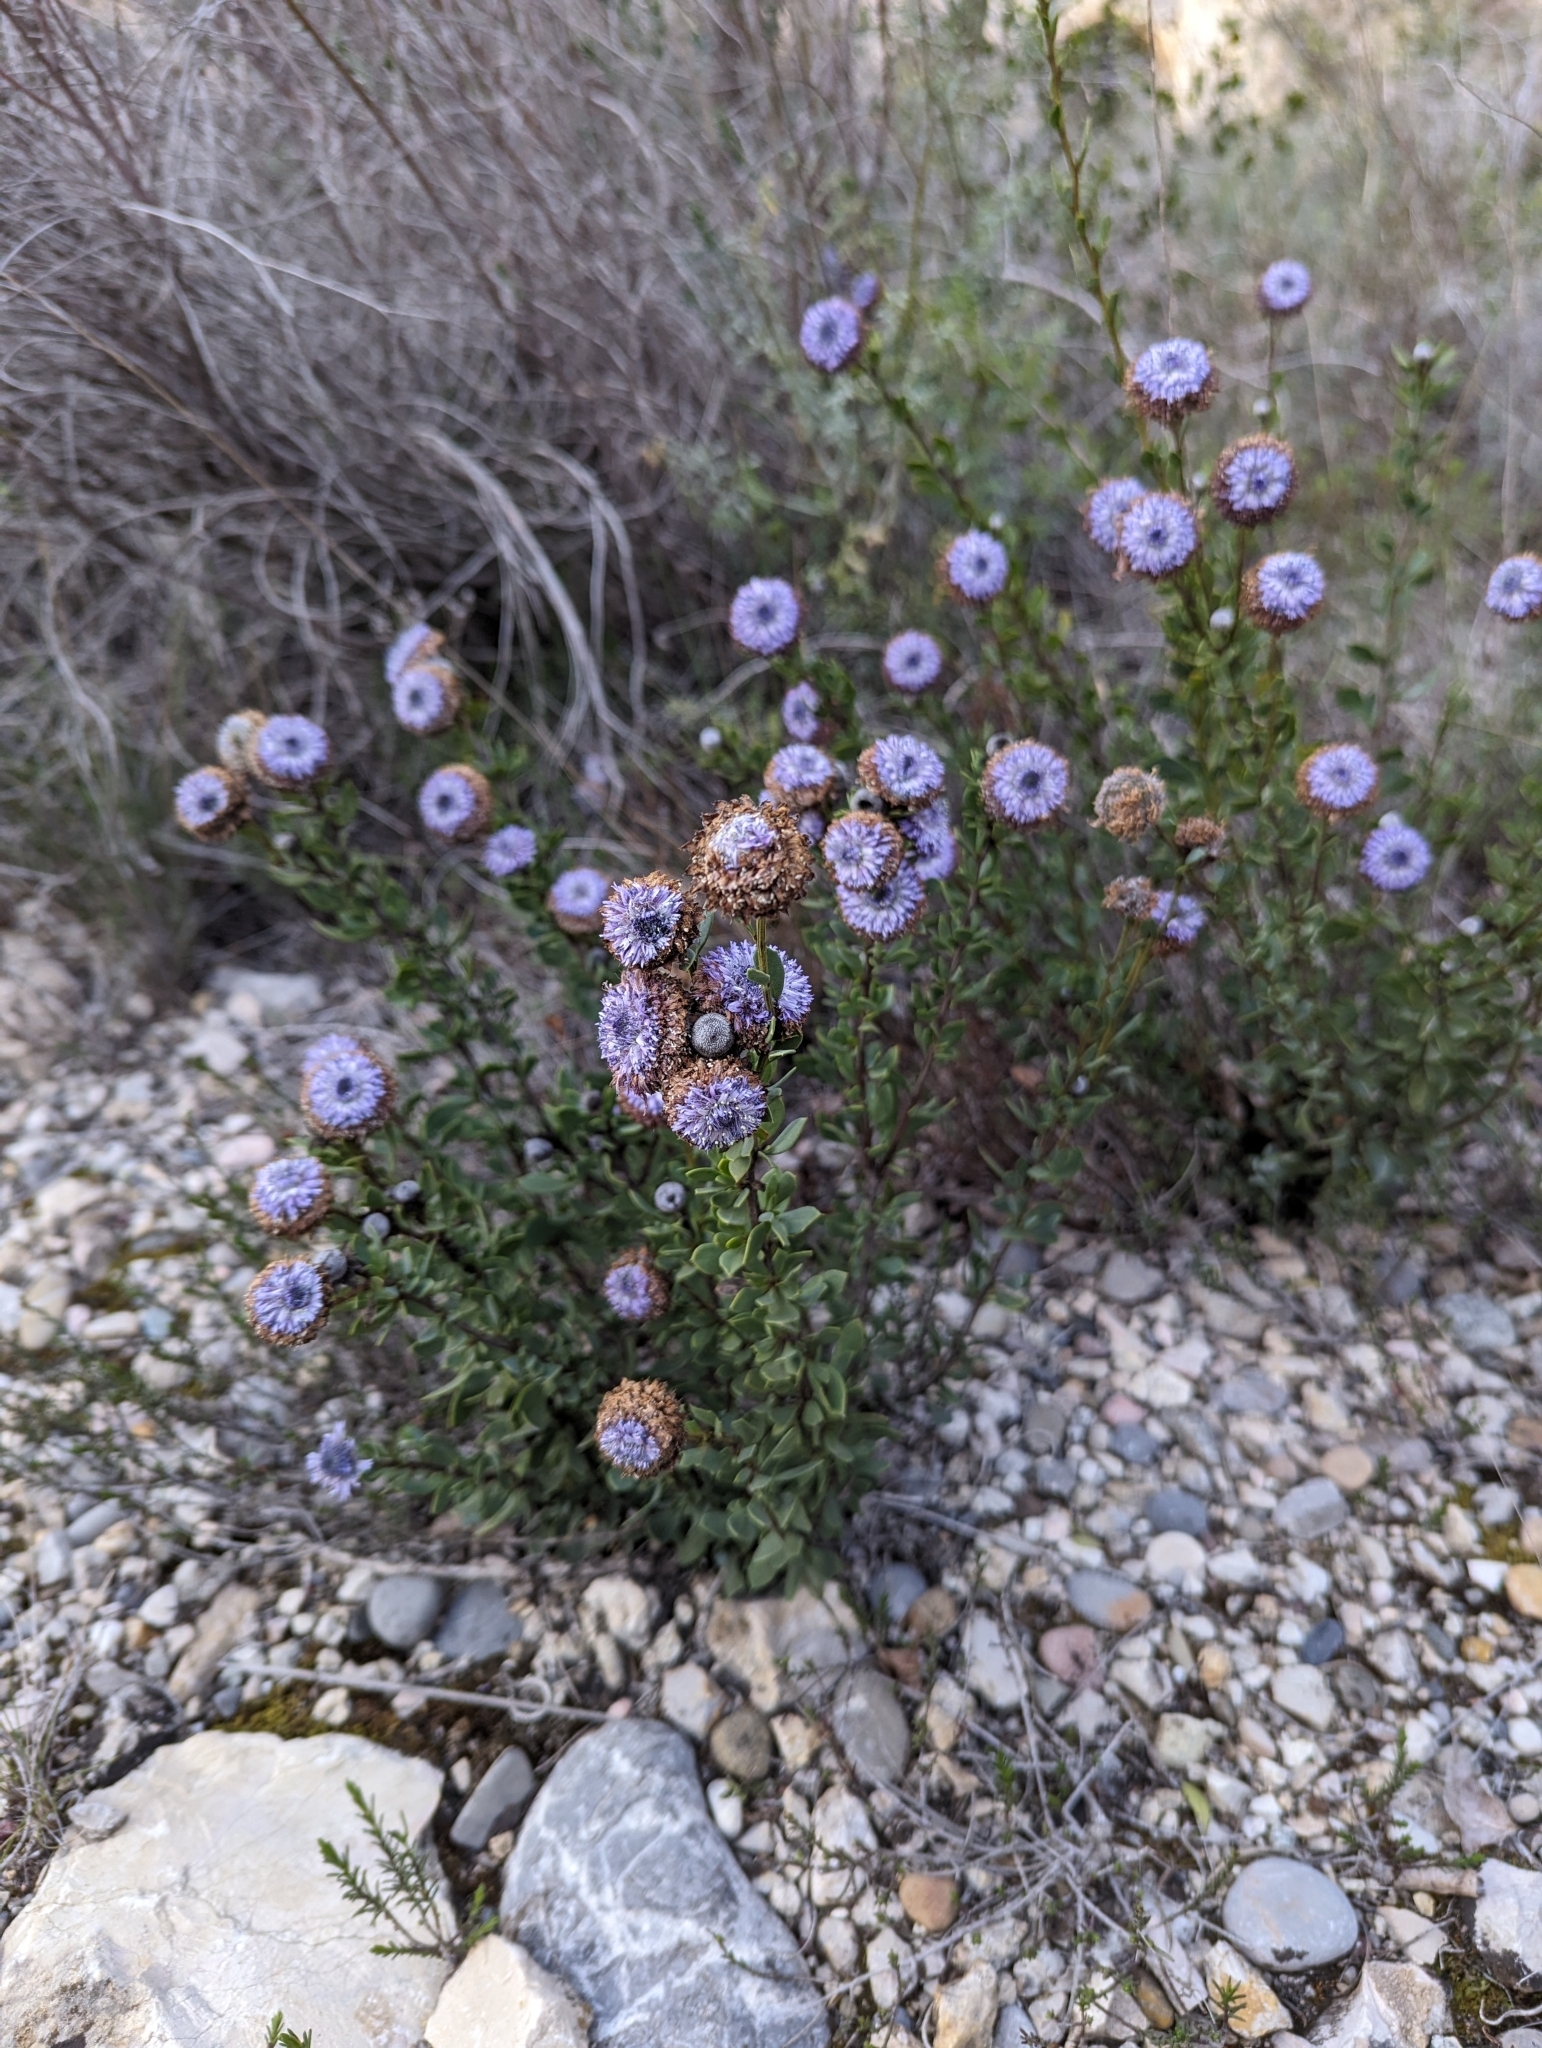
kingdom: Plantae
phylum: Tracheophyta
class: Magnoliopsida
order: Lamiales
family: Plantaginaceae
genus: Globularia
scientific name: Globularia alypum
